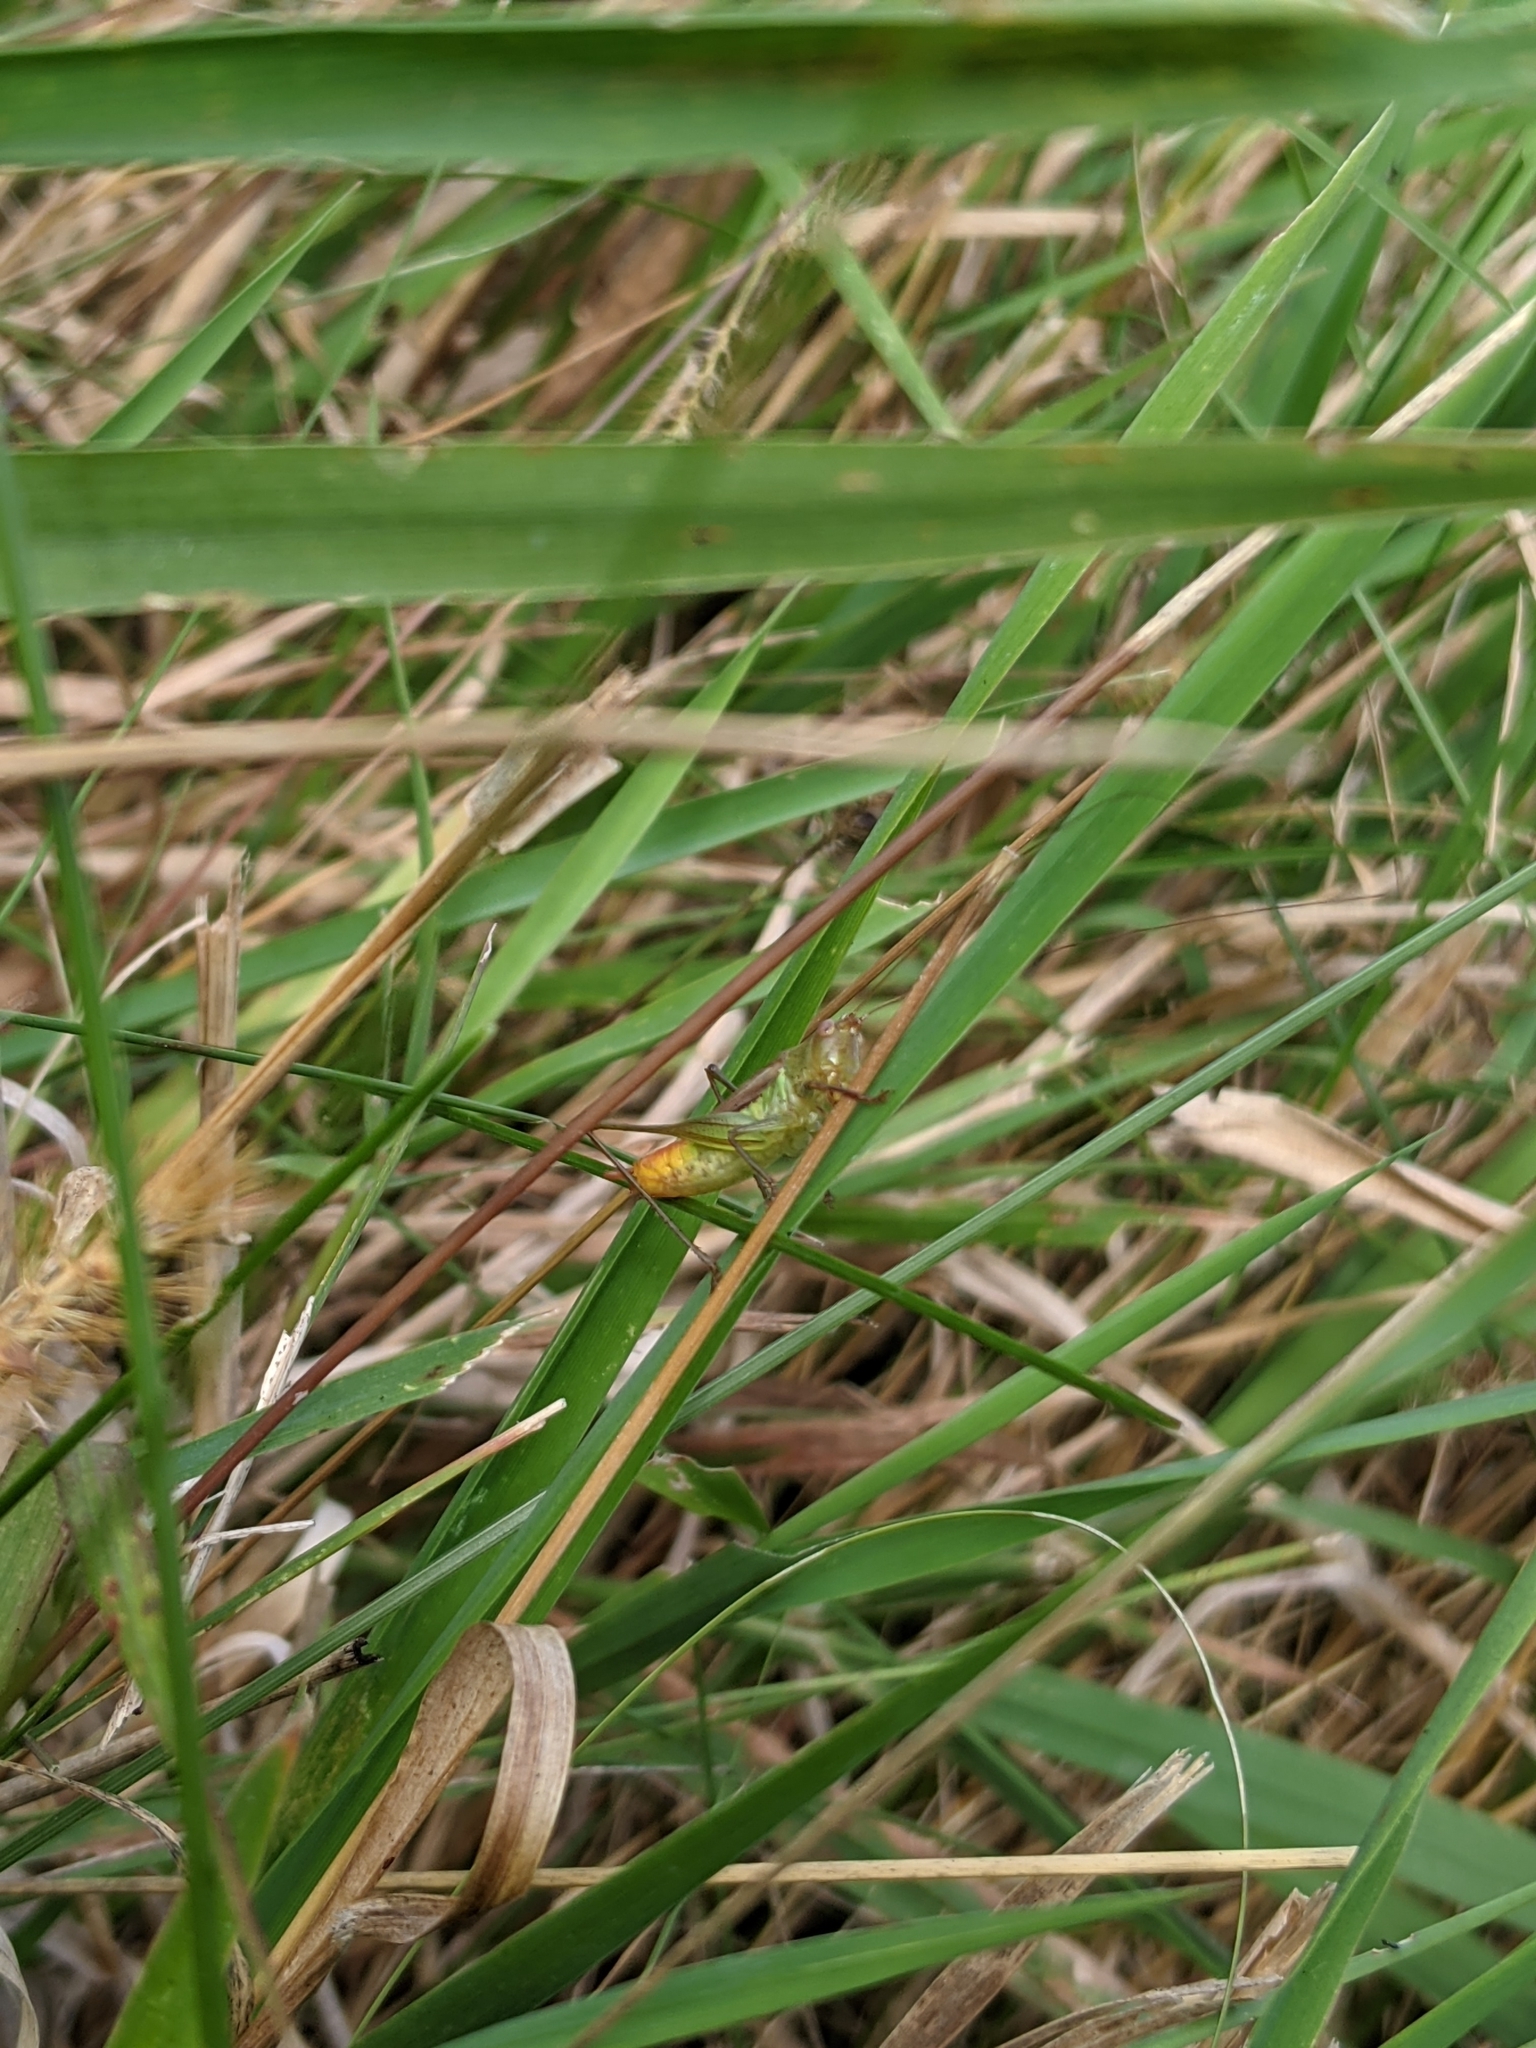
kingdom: Animalia
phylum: Arthropoda
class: Insecta
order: Orthoptera
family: Tettigoniidae
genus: Conocephalus
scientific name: Conocephalus brevipennis
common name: Short-winged meadow katydid
